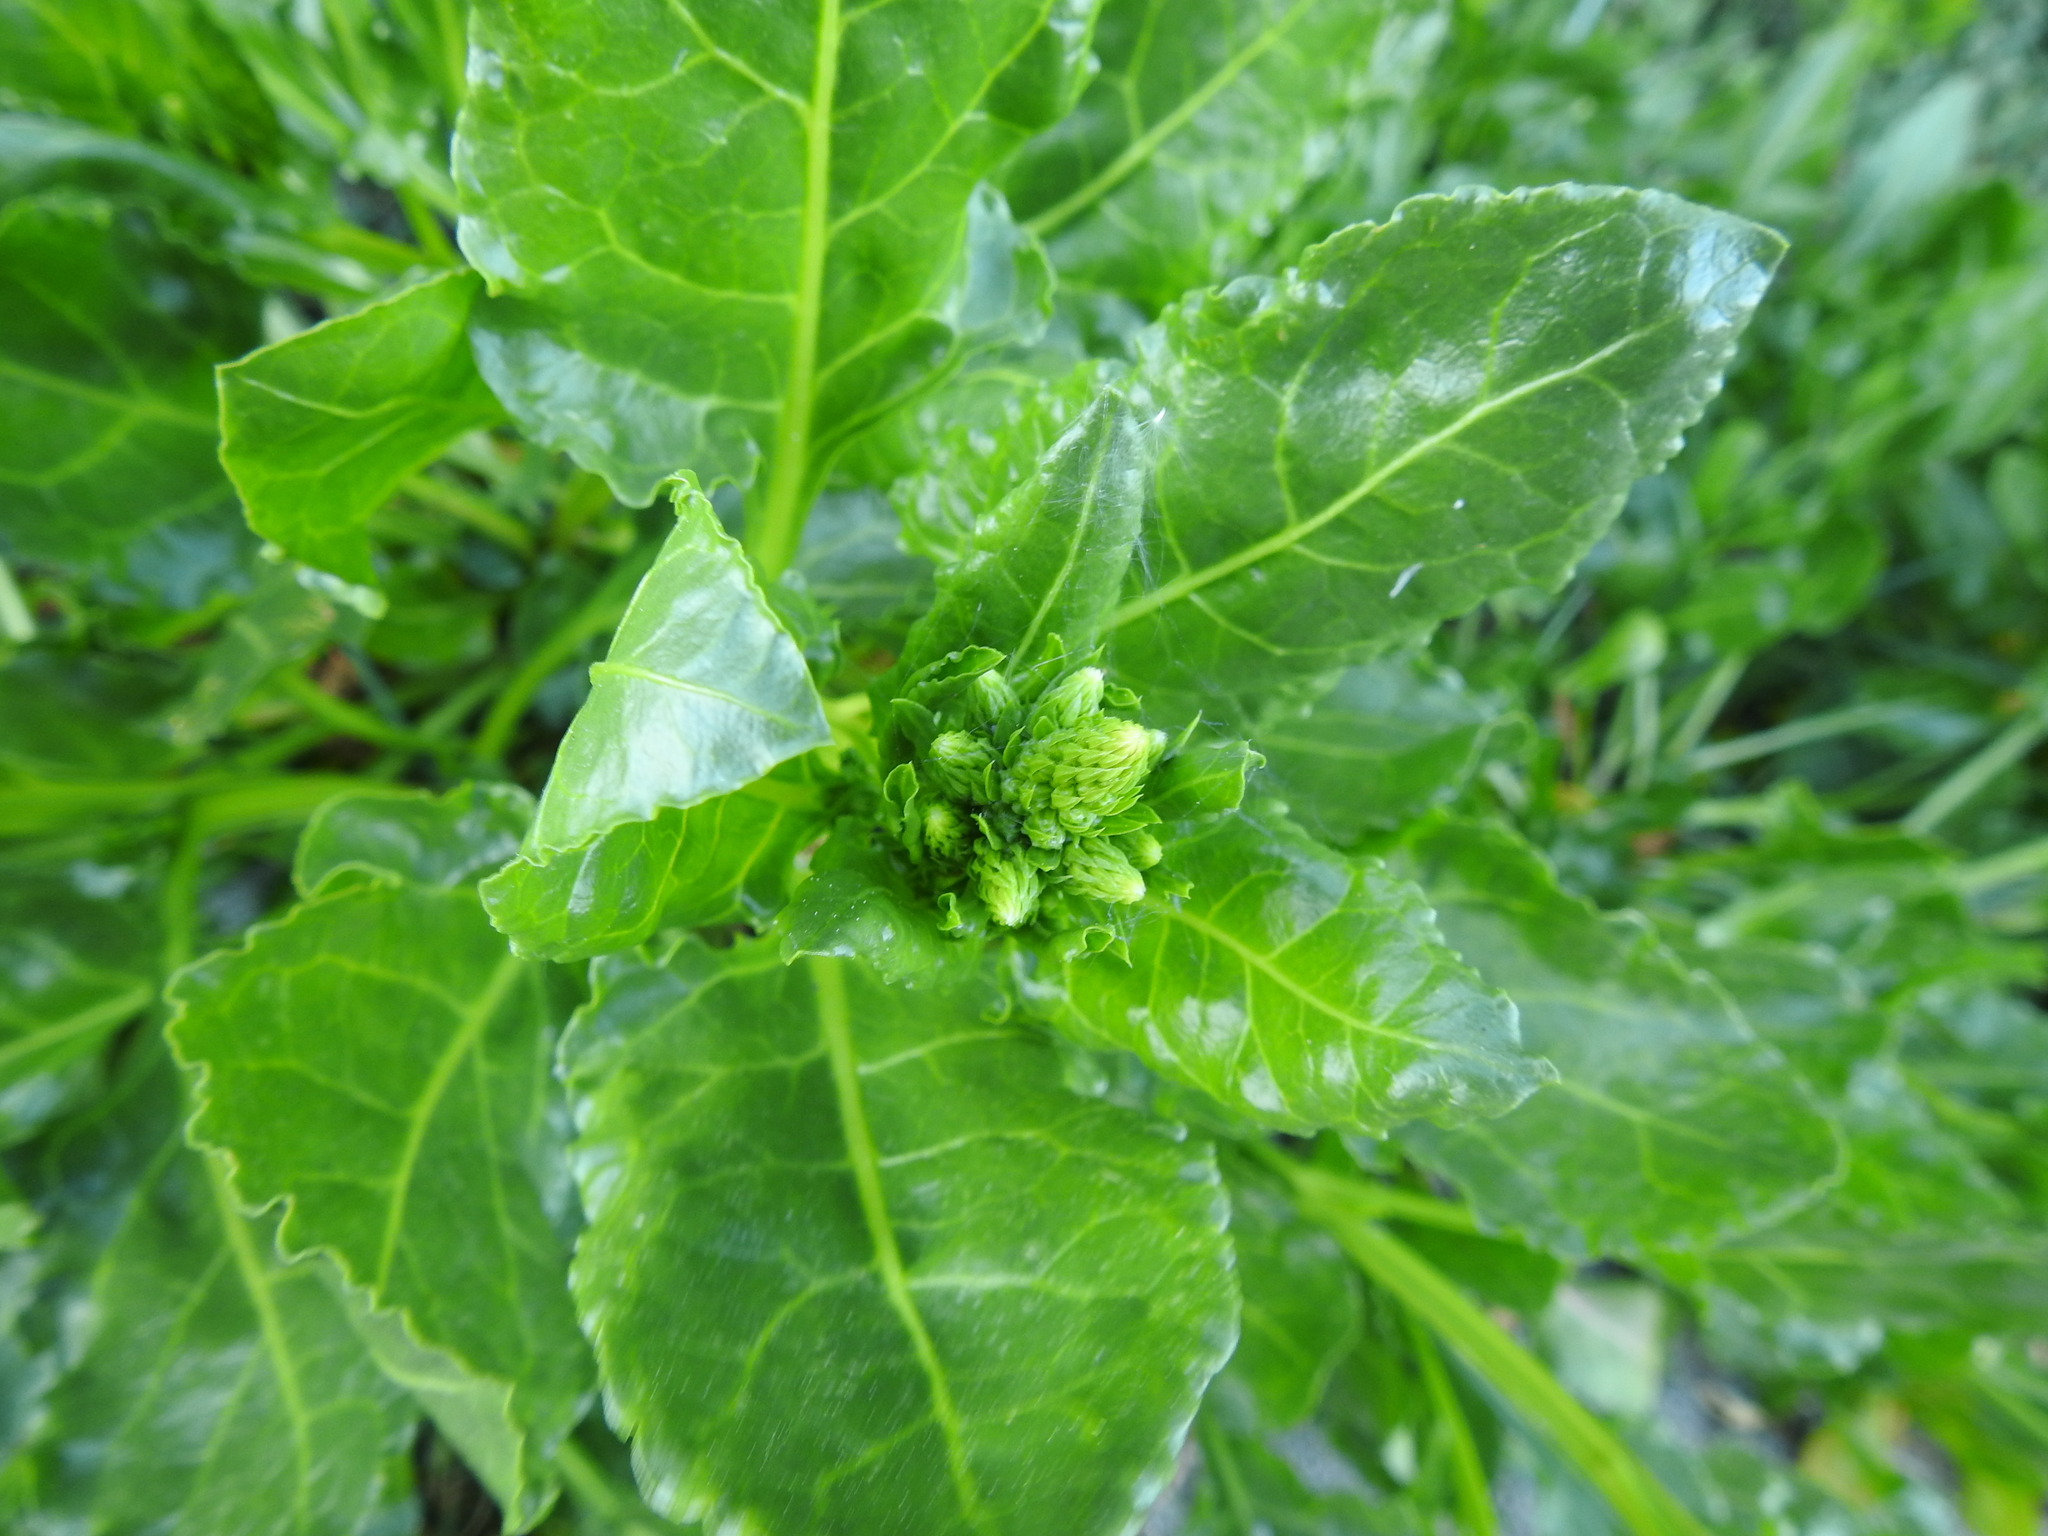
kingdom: Plantae
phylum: Tracheophyta
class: Magnoliopsida
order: Caryophyllales
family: Amaranthaceae
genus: Beta
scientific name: Beta vulgaris
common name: Beet
